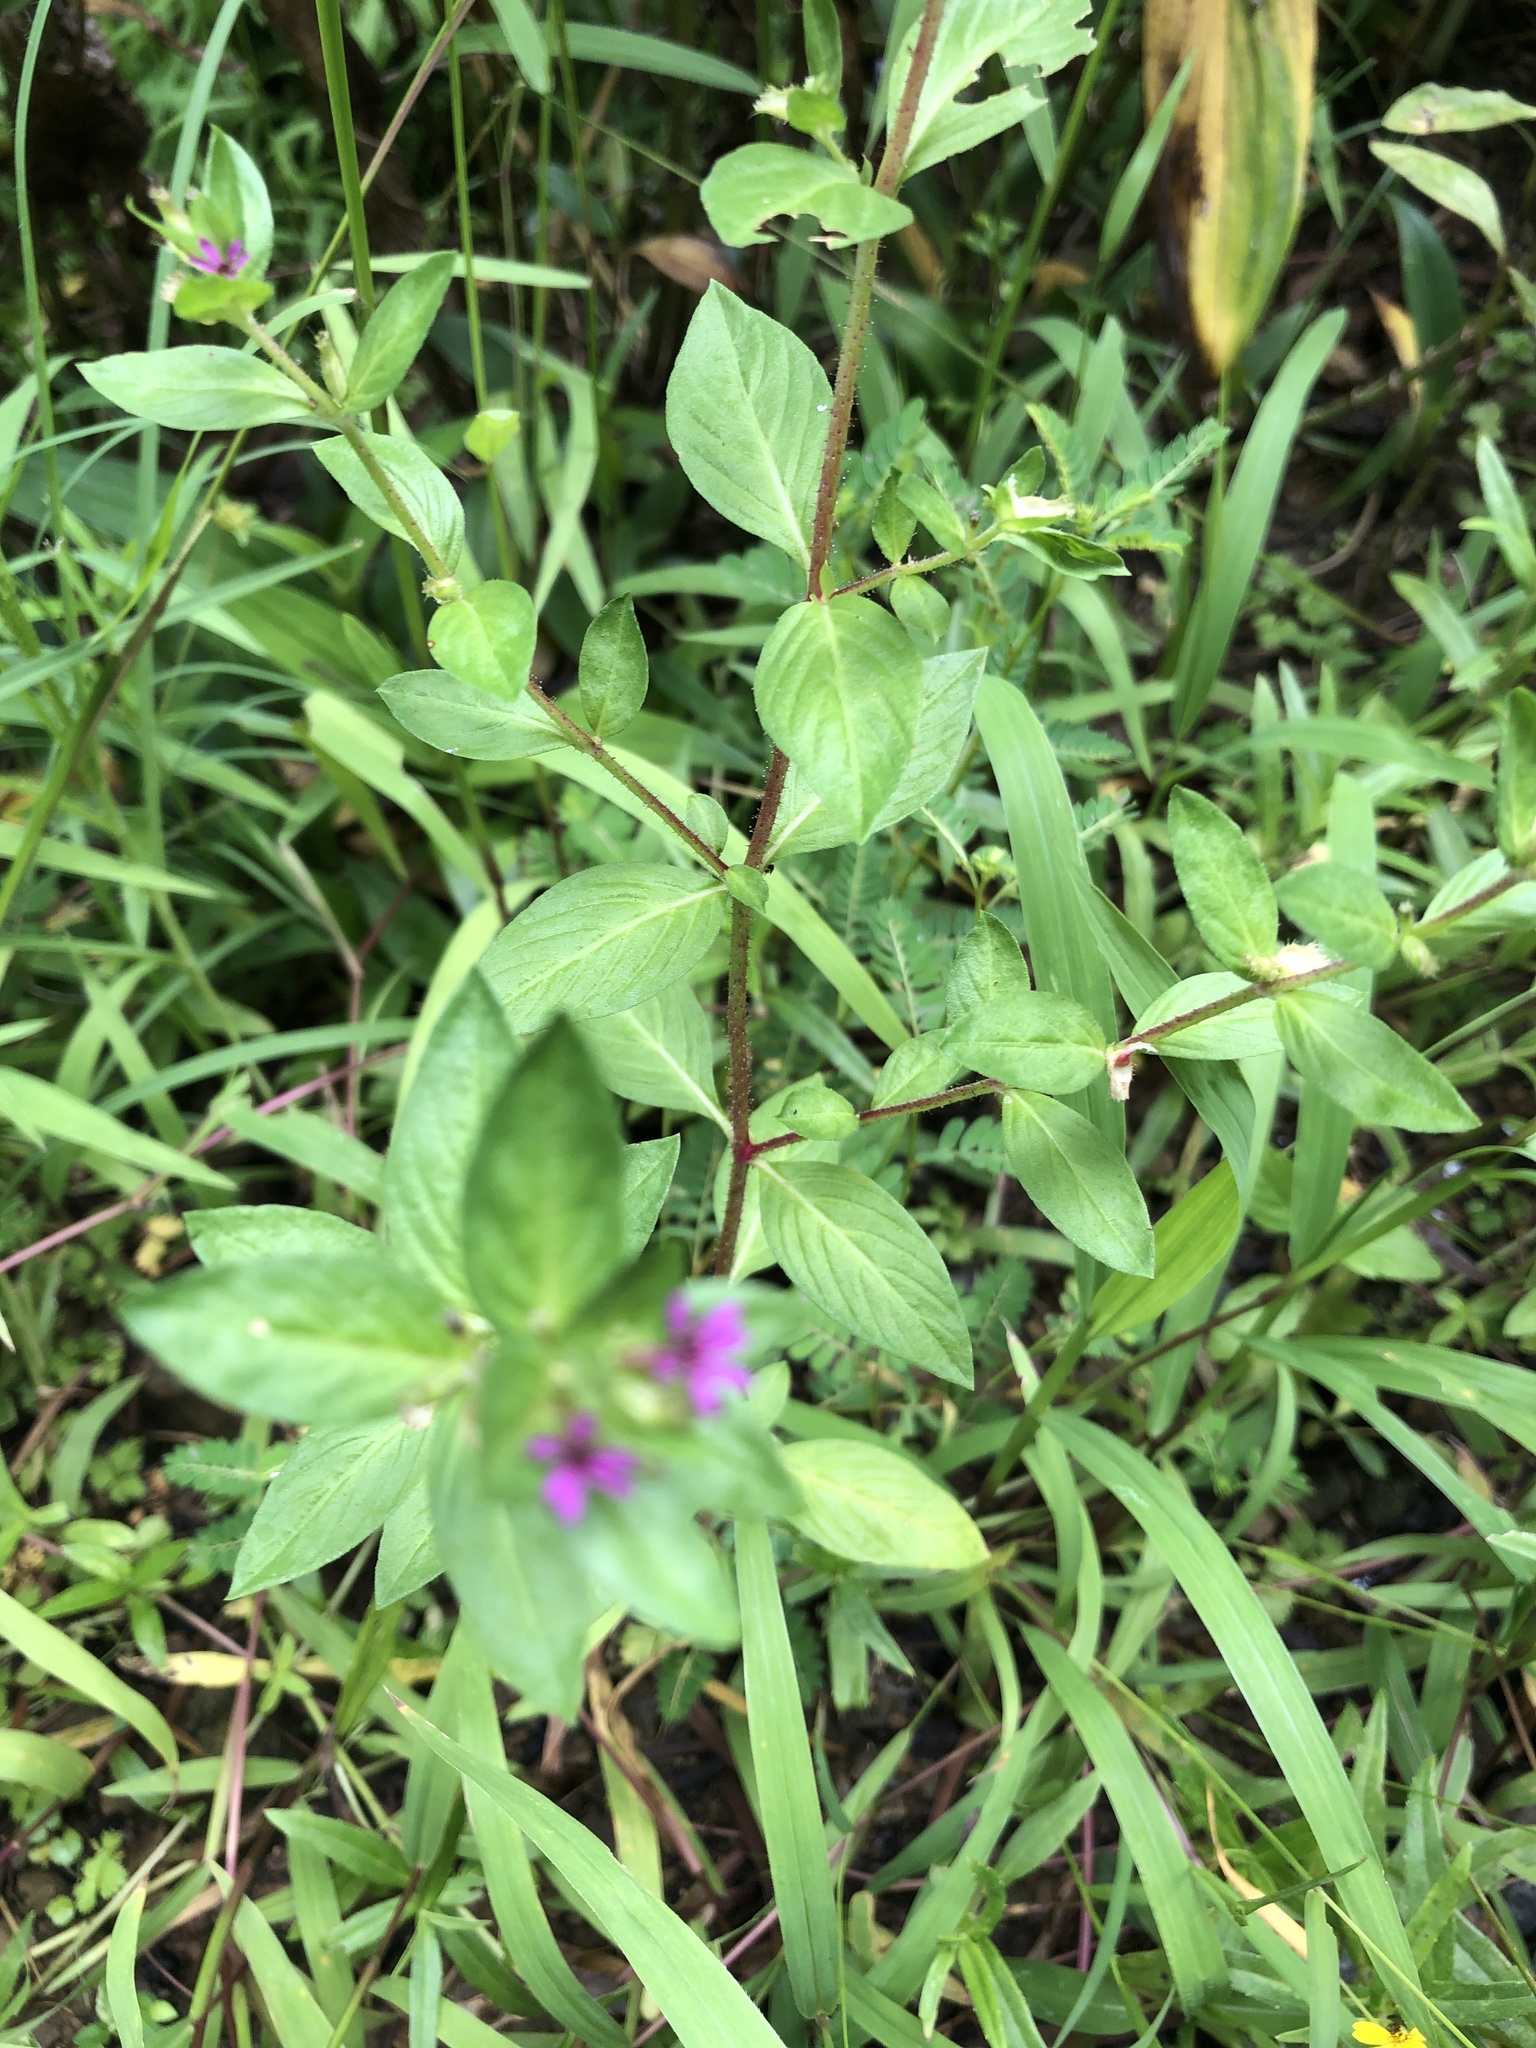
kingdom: Plantae
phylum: Tracheophyta
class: Magnoliopsida
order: Myrtales
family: Lythraceae
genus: Cuphea
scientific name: Cuphea carthagenensis
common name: Colombian waxweed
